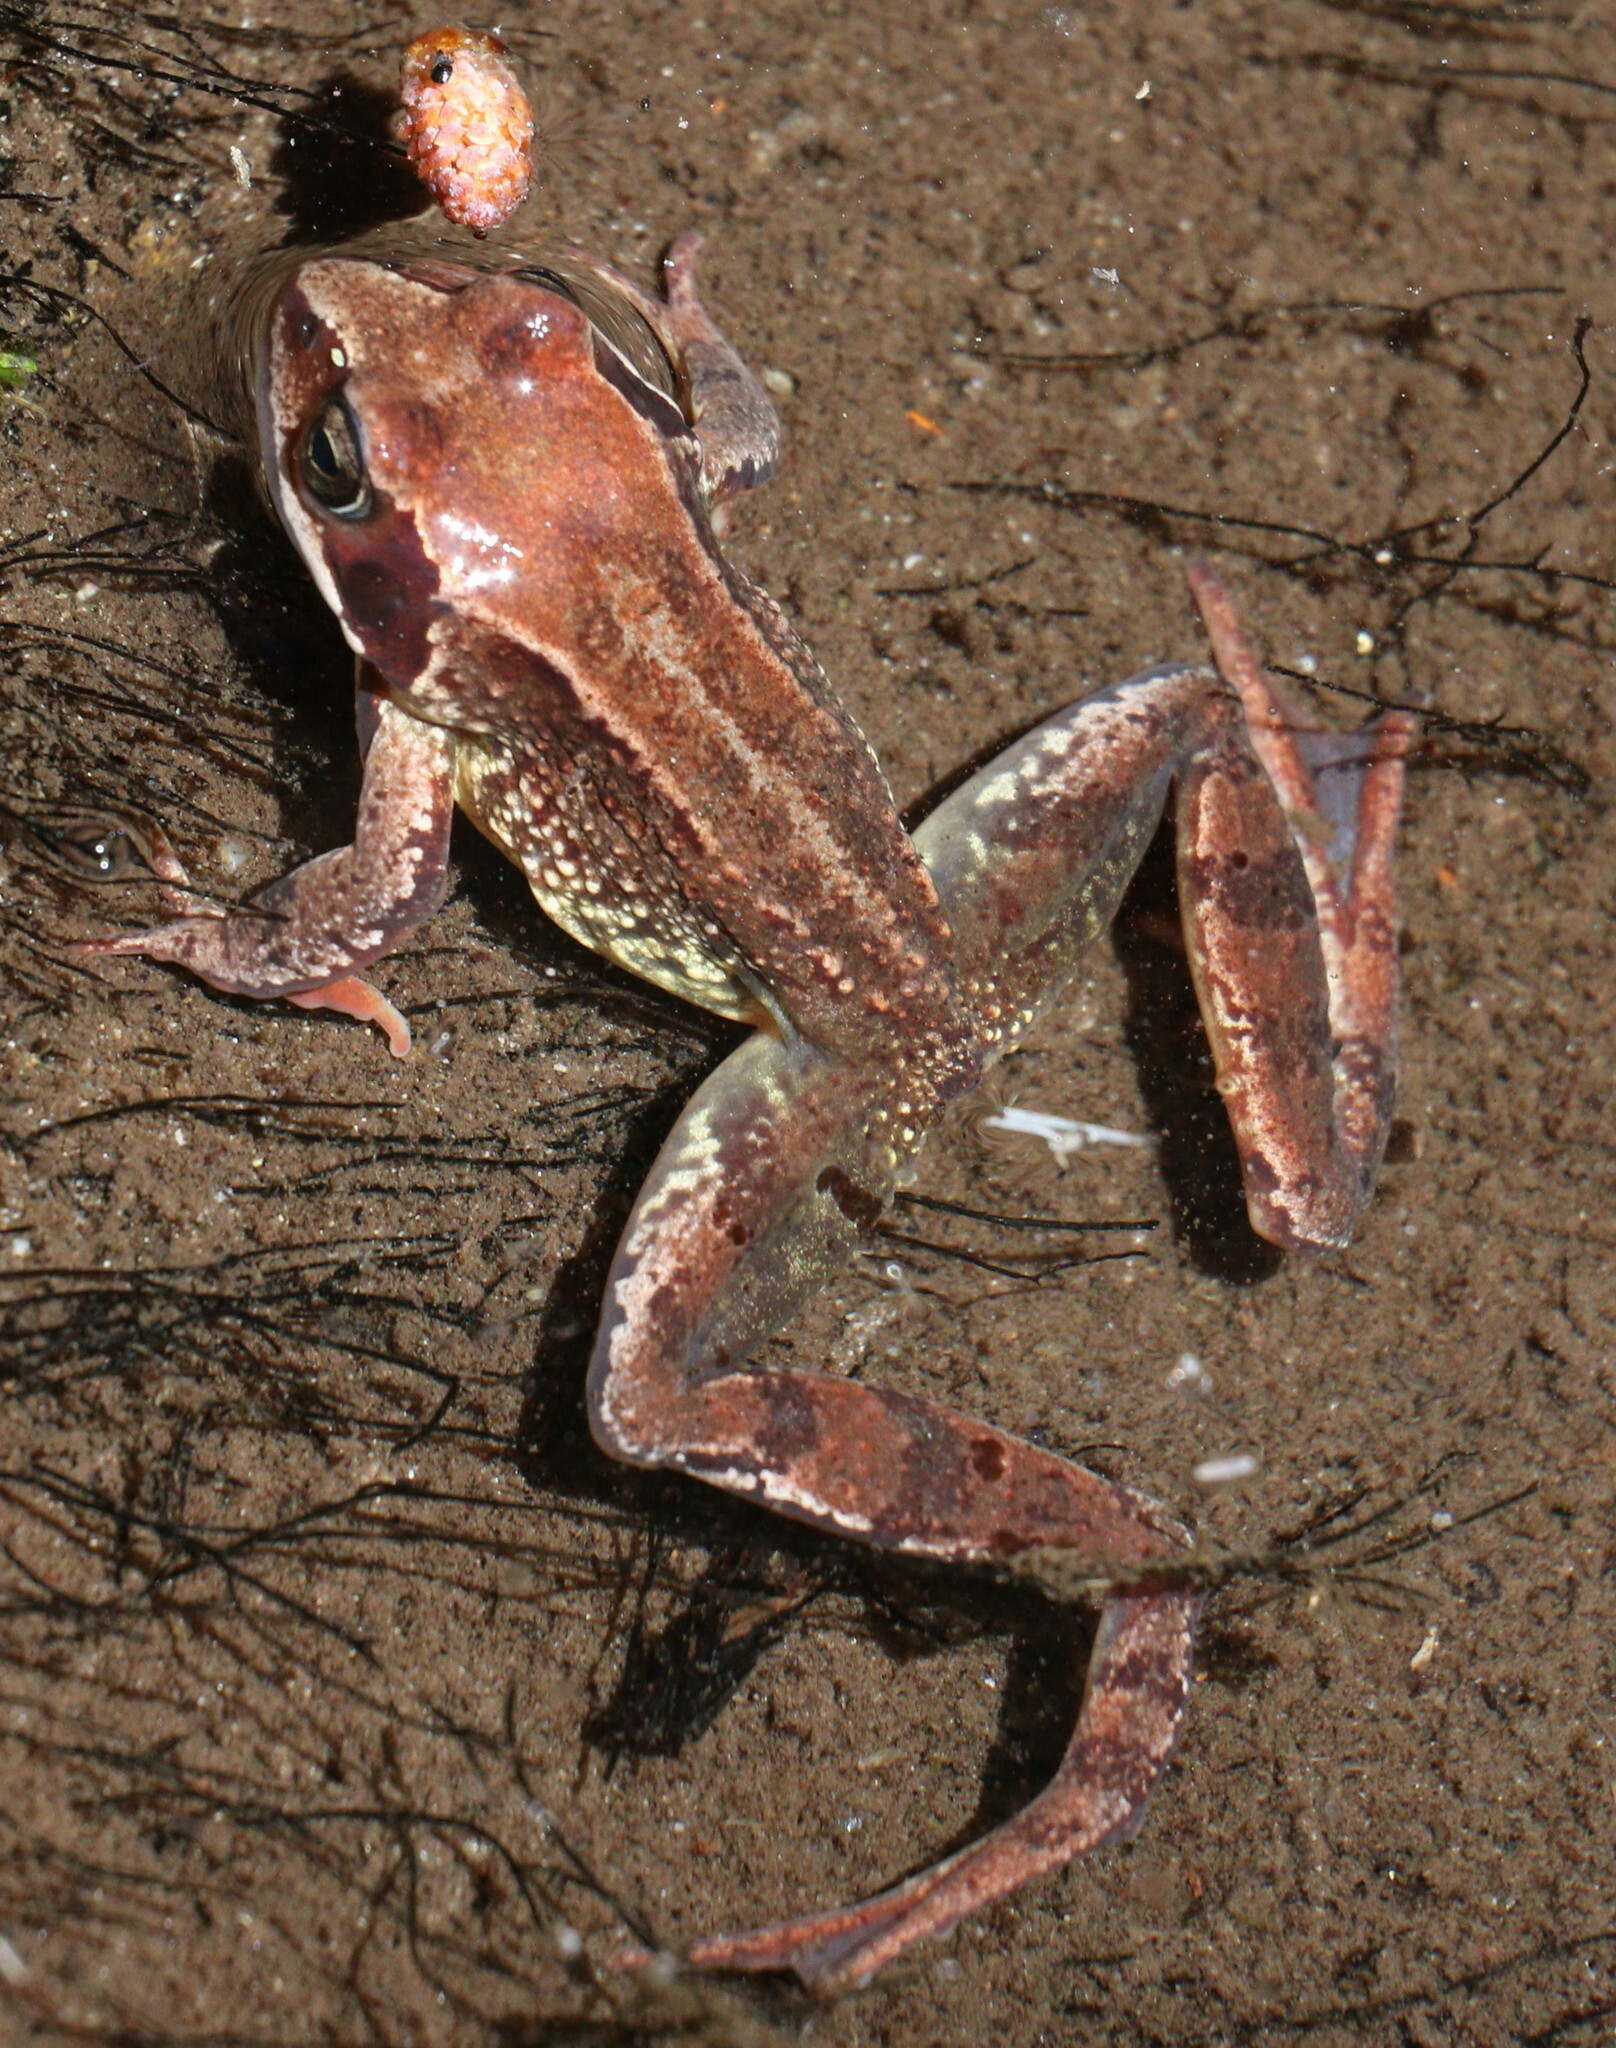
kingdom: Animalia
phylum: Chordata
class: Amphibia
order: Anura
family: Ranidae
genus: Rana
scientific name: Rana temporaria
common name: Common frog
